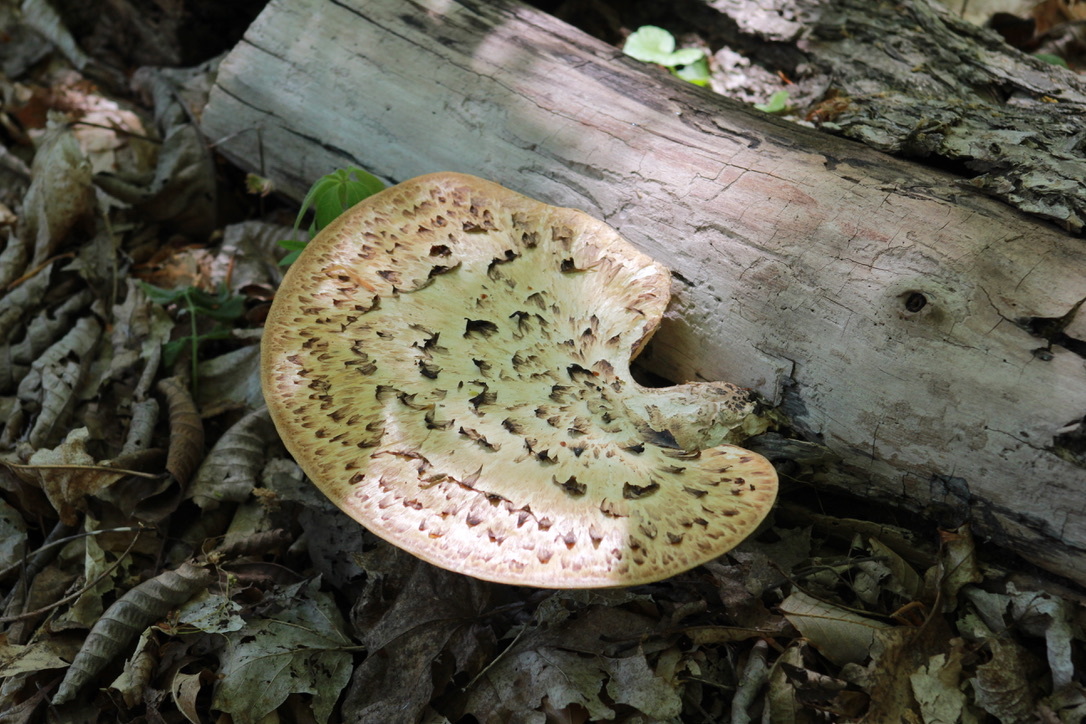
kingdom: Fungi
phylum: Basidiomycota
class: Agaricomycetes
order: Polyporales
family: Polyporaceae
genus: Cerioporus
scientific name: Cerioporus squamosus
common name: Dryad's saddle
